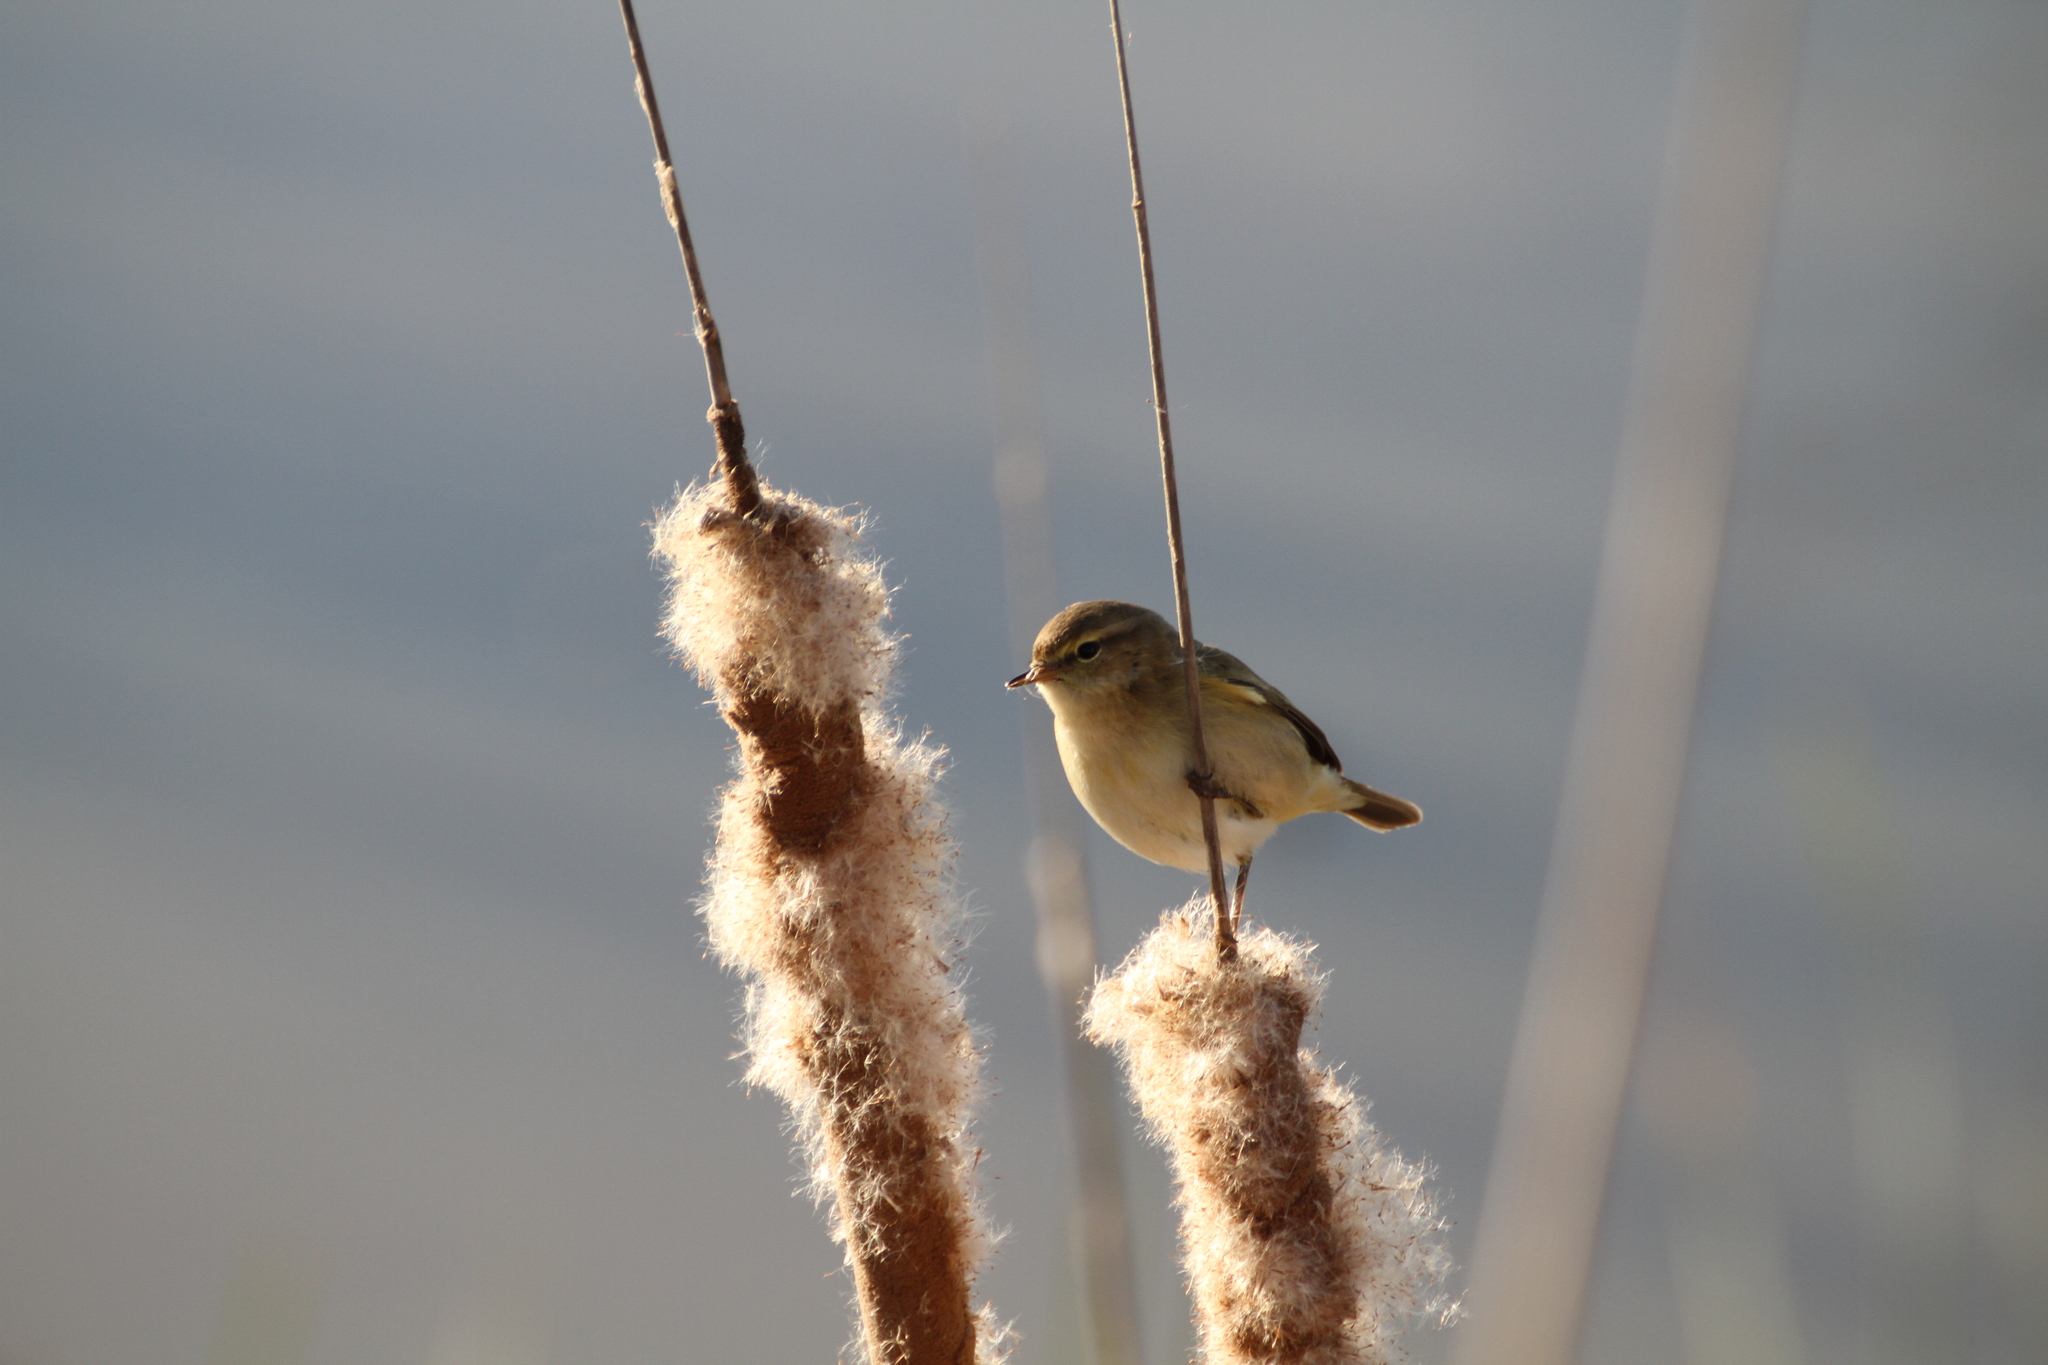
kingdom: Animalia
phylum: Chordata
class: Aves
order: Passeriformes
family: Phylloscopidae
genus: Phylloscopus
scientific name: Phylloscopus collybita
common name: Common chiffchaff
